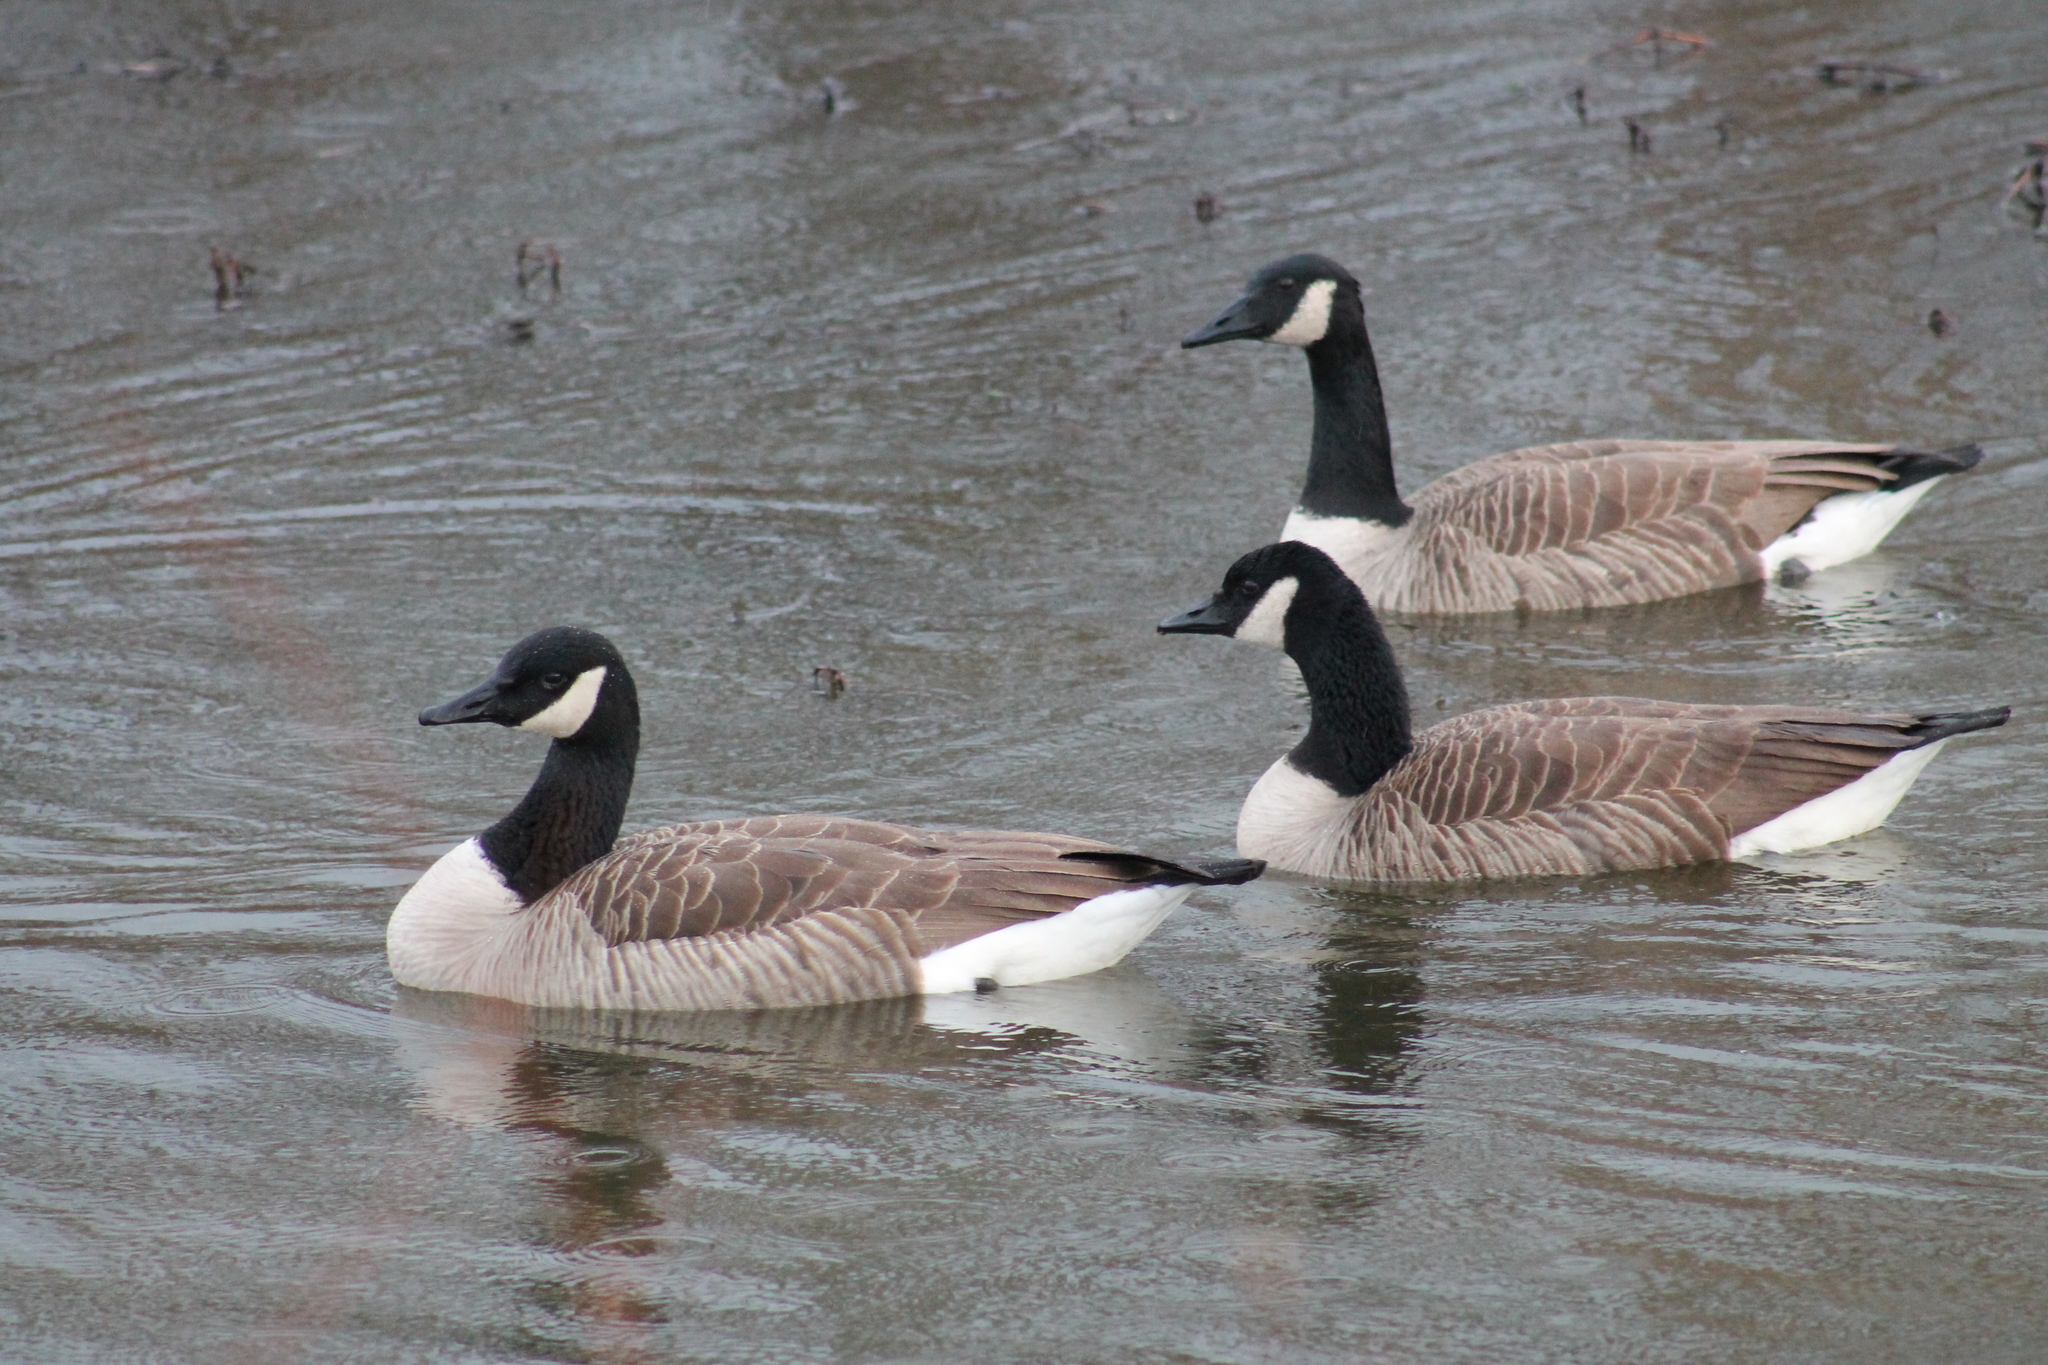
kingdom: Animalia
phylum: Chordata
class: Aves
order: Anseriformes
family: Anatidae
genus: Branta
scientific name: Branta canadensis
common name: Canada goose
